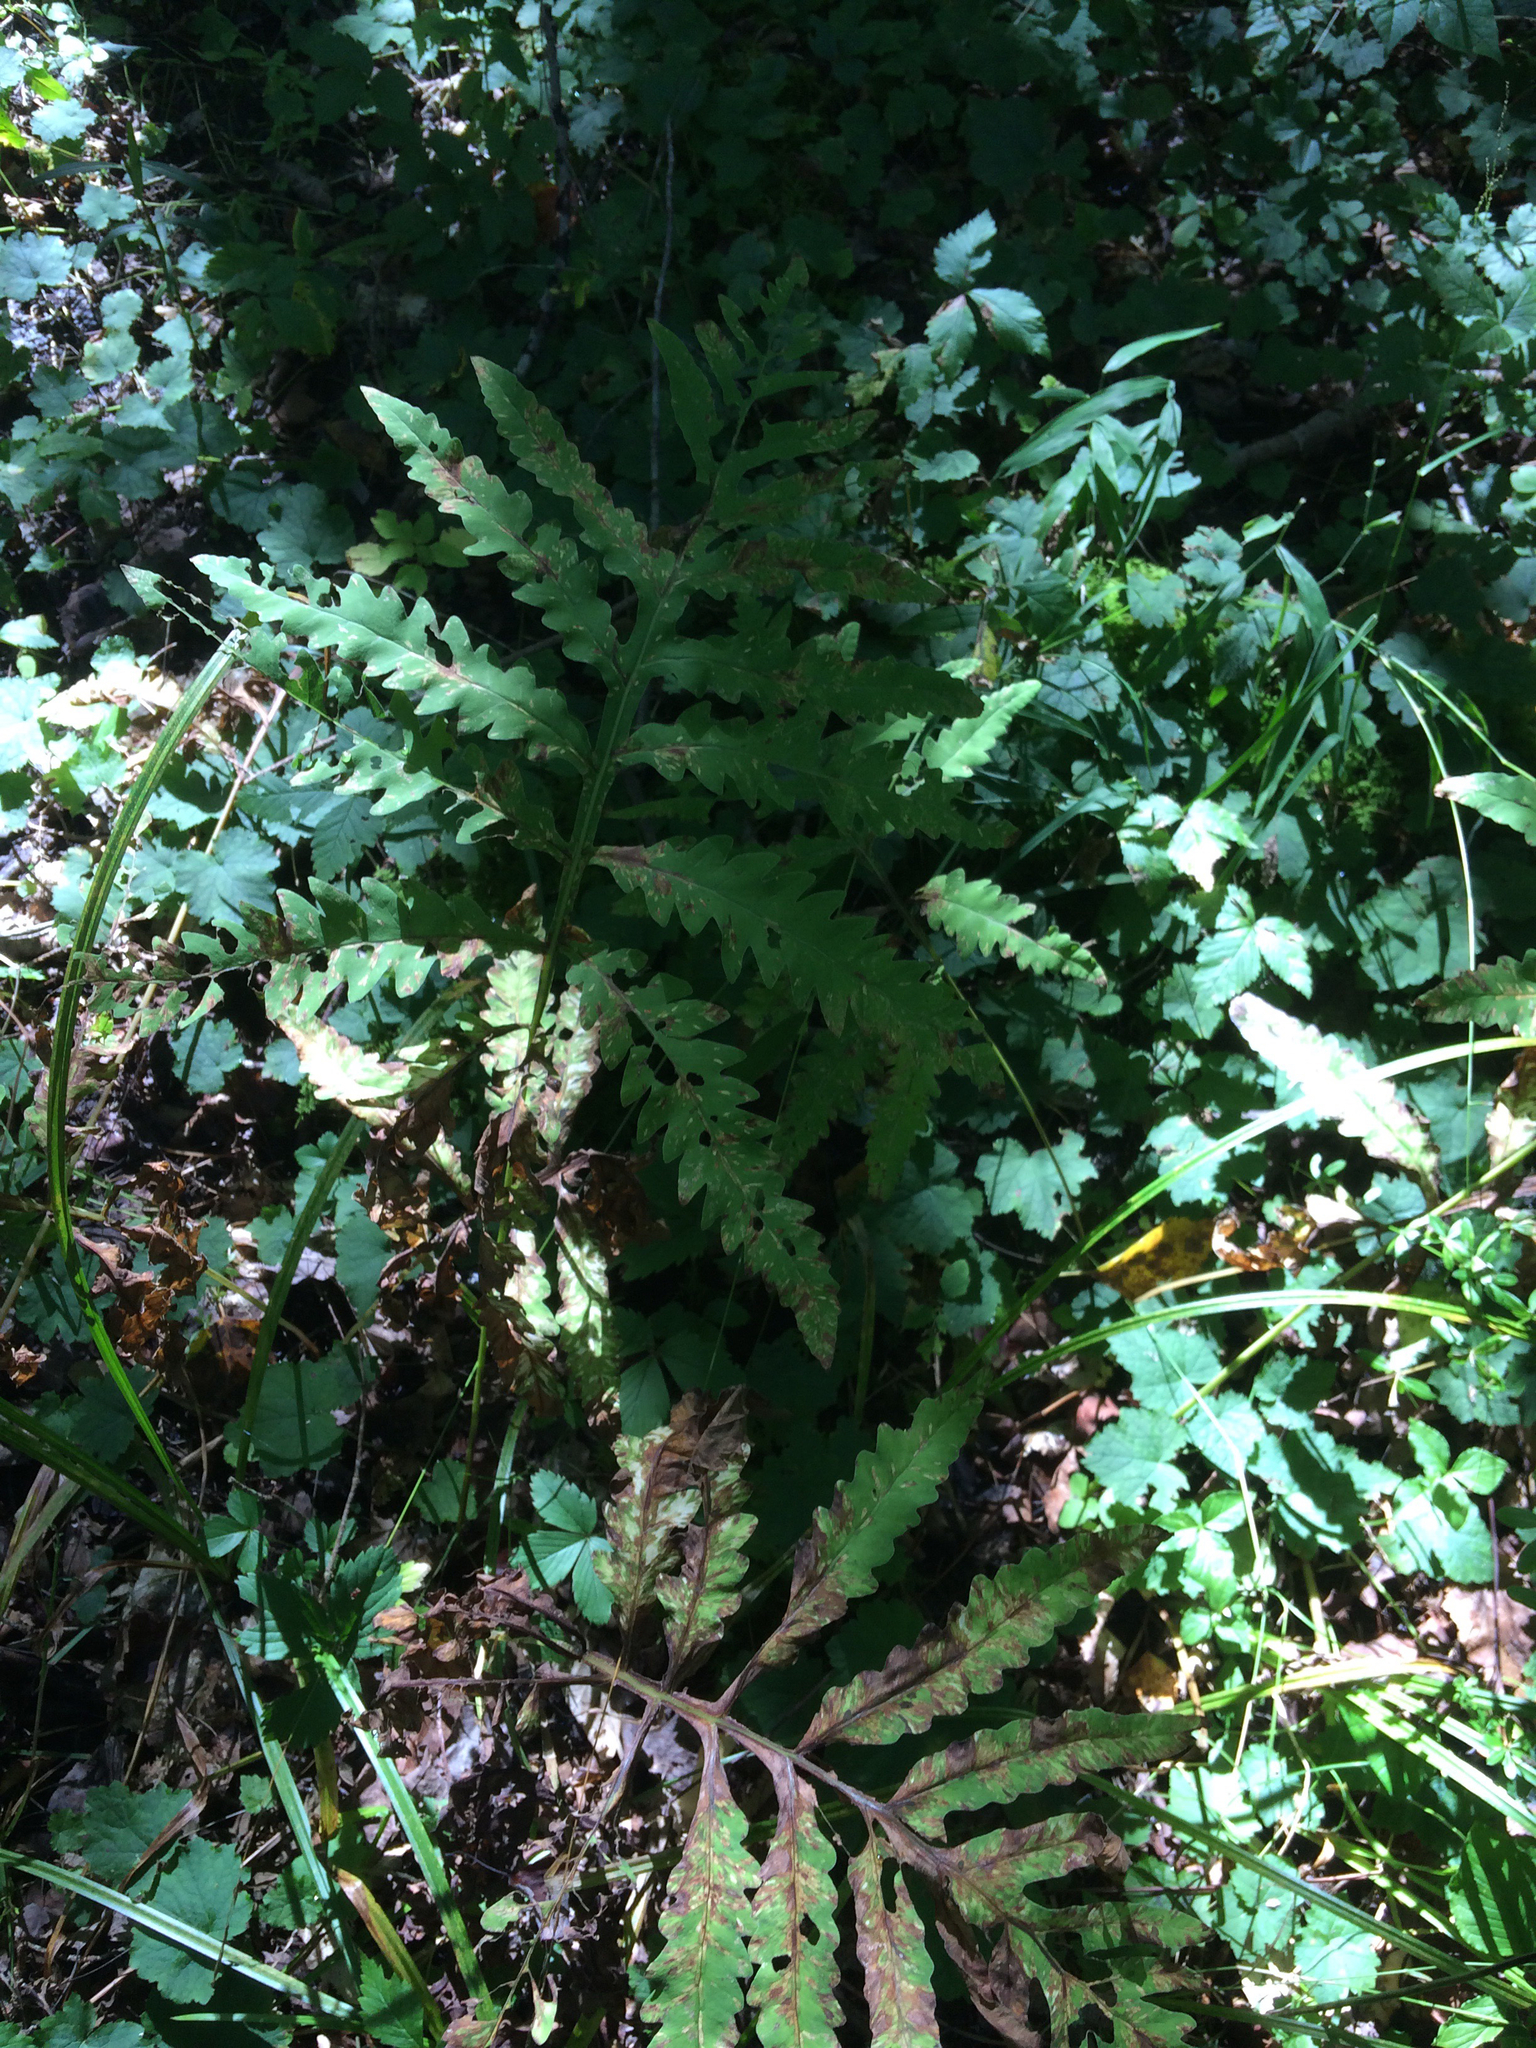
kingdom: Plantae
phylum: Tracheophyta
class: Polypodiopsida
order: Polypodiales
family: Onocleaceae
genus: Onoclea
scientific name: Onoclea sensibilis
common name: Sensitive fern
